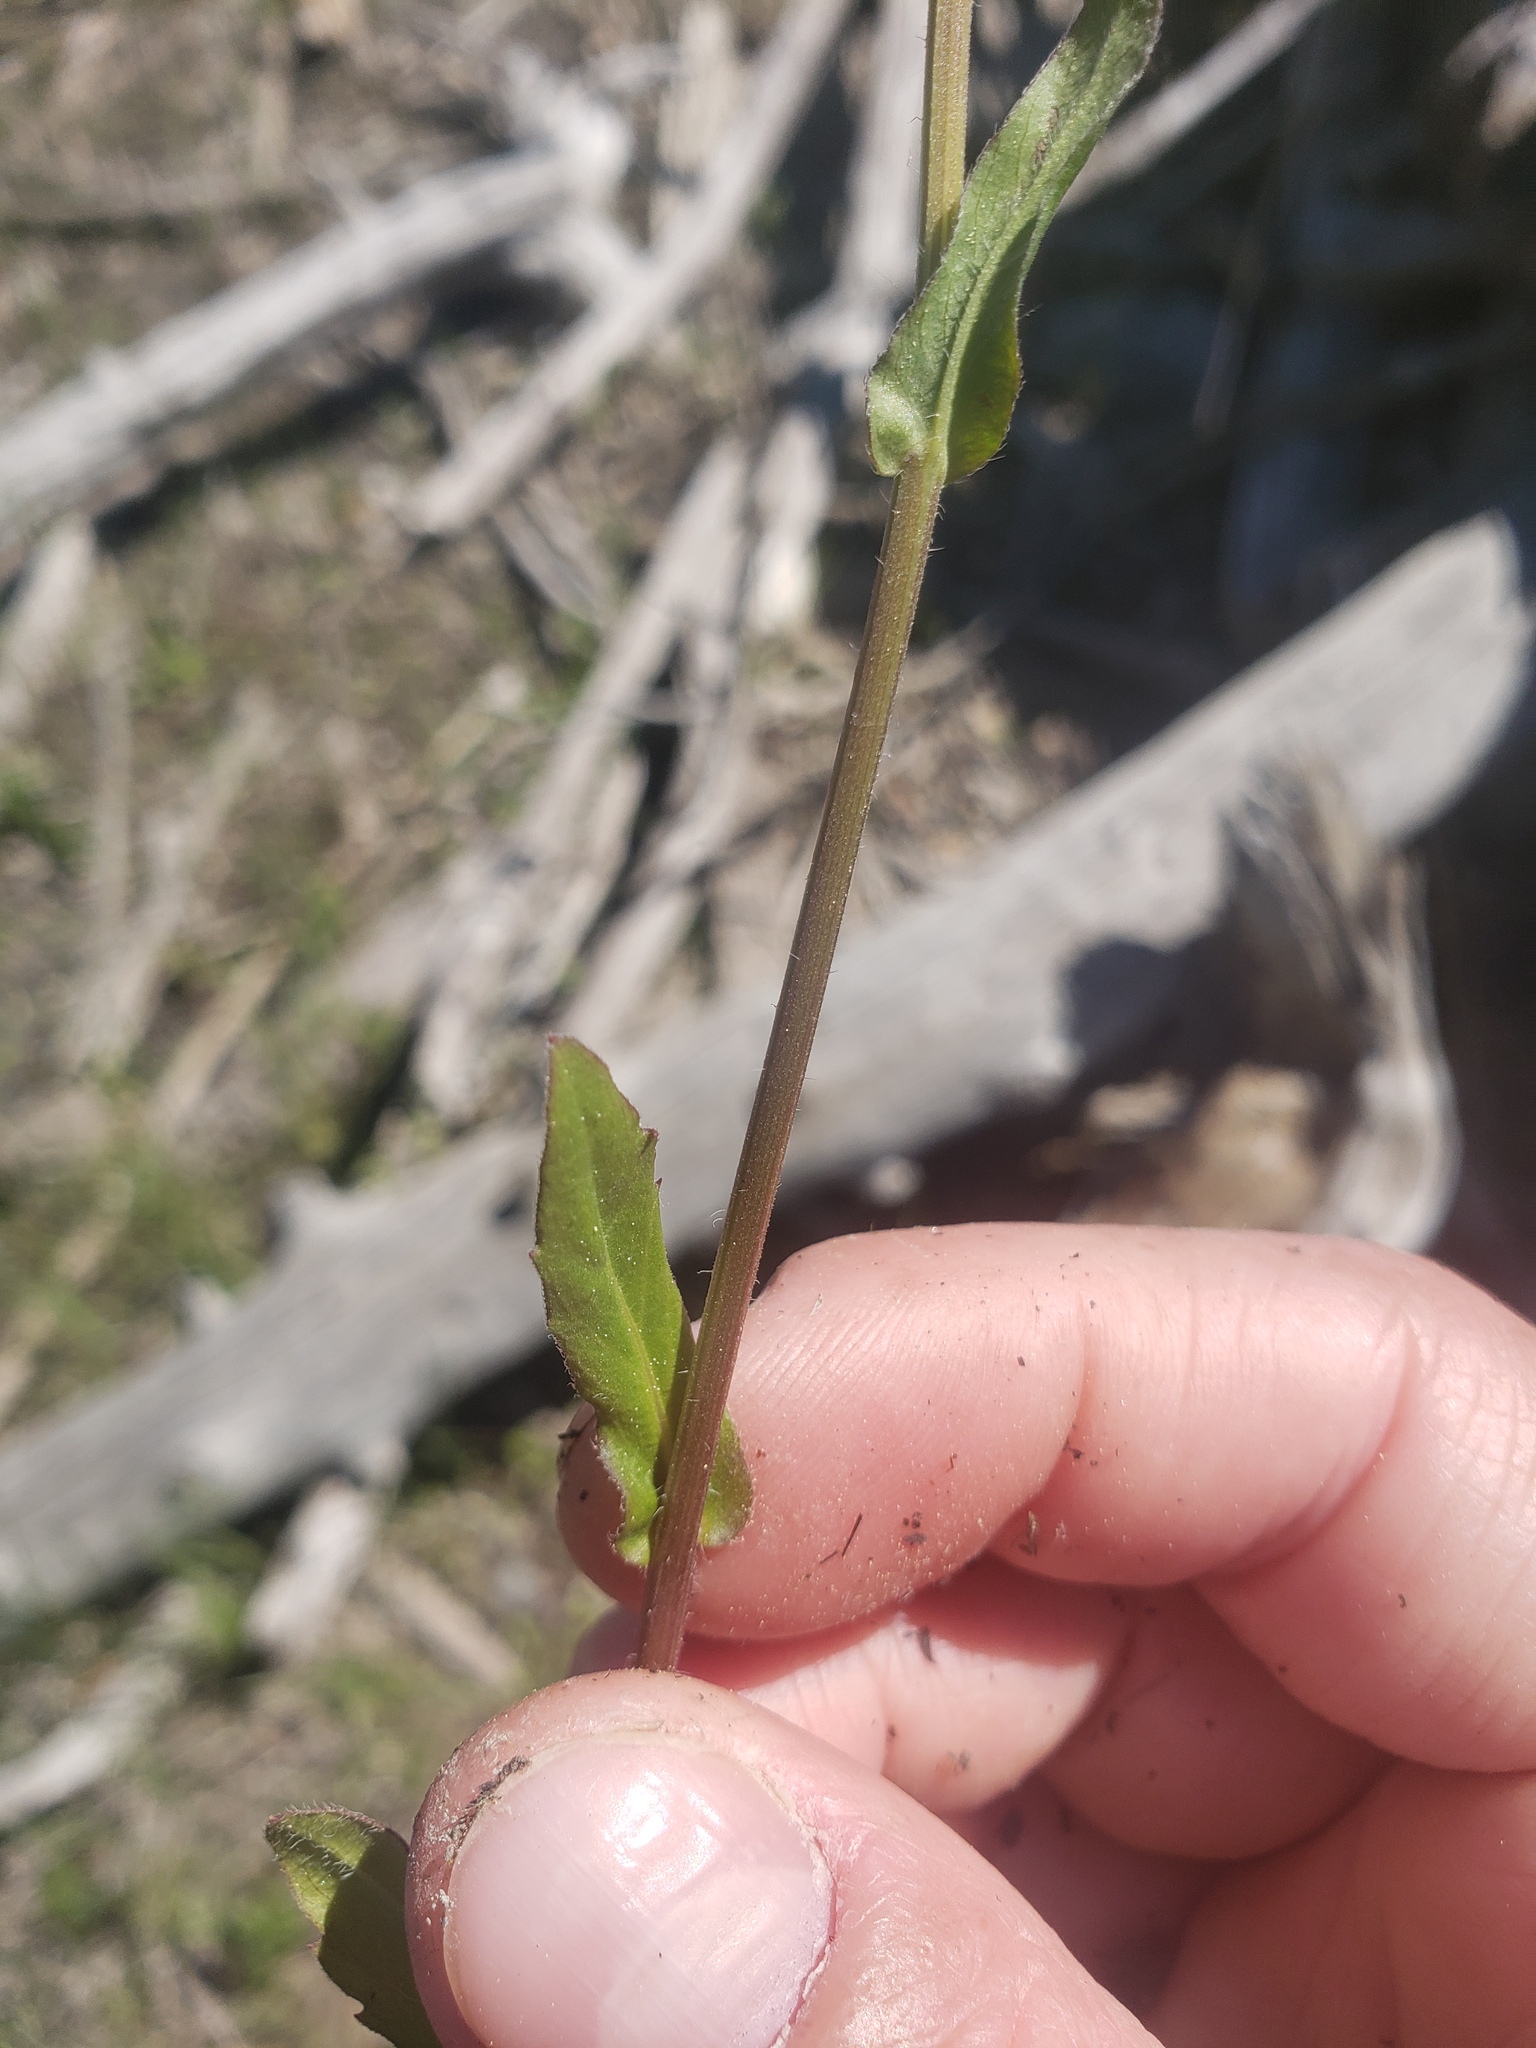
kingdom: Plantae
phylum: Tracheophyta
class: Magnoliopsida
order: Asterales
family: Asteraceae
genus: Erigeron
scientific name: Erigeron philadelphicus
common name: Robin's-plantain
